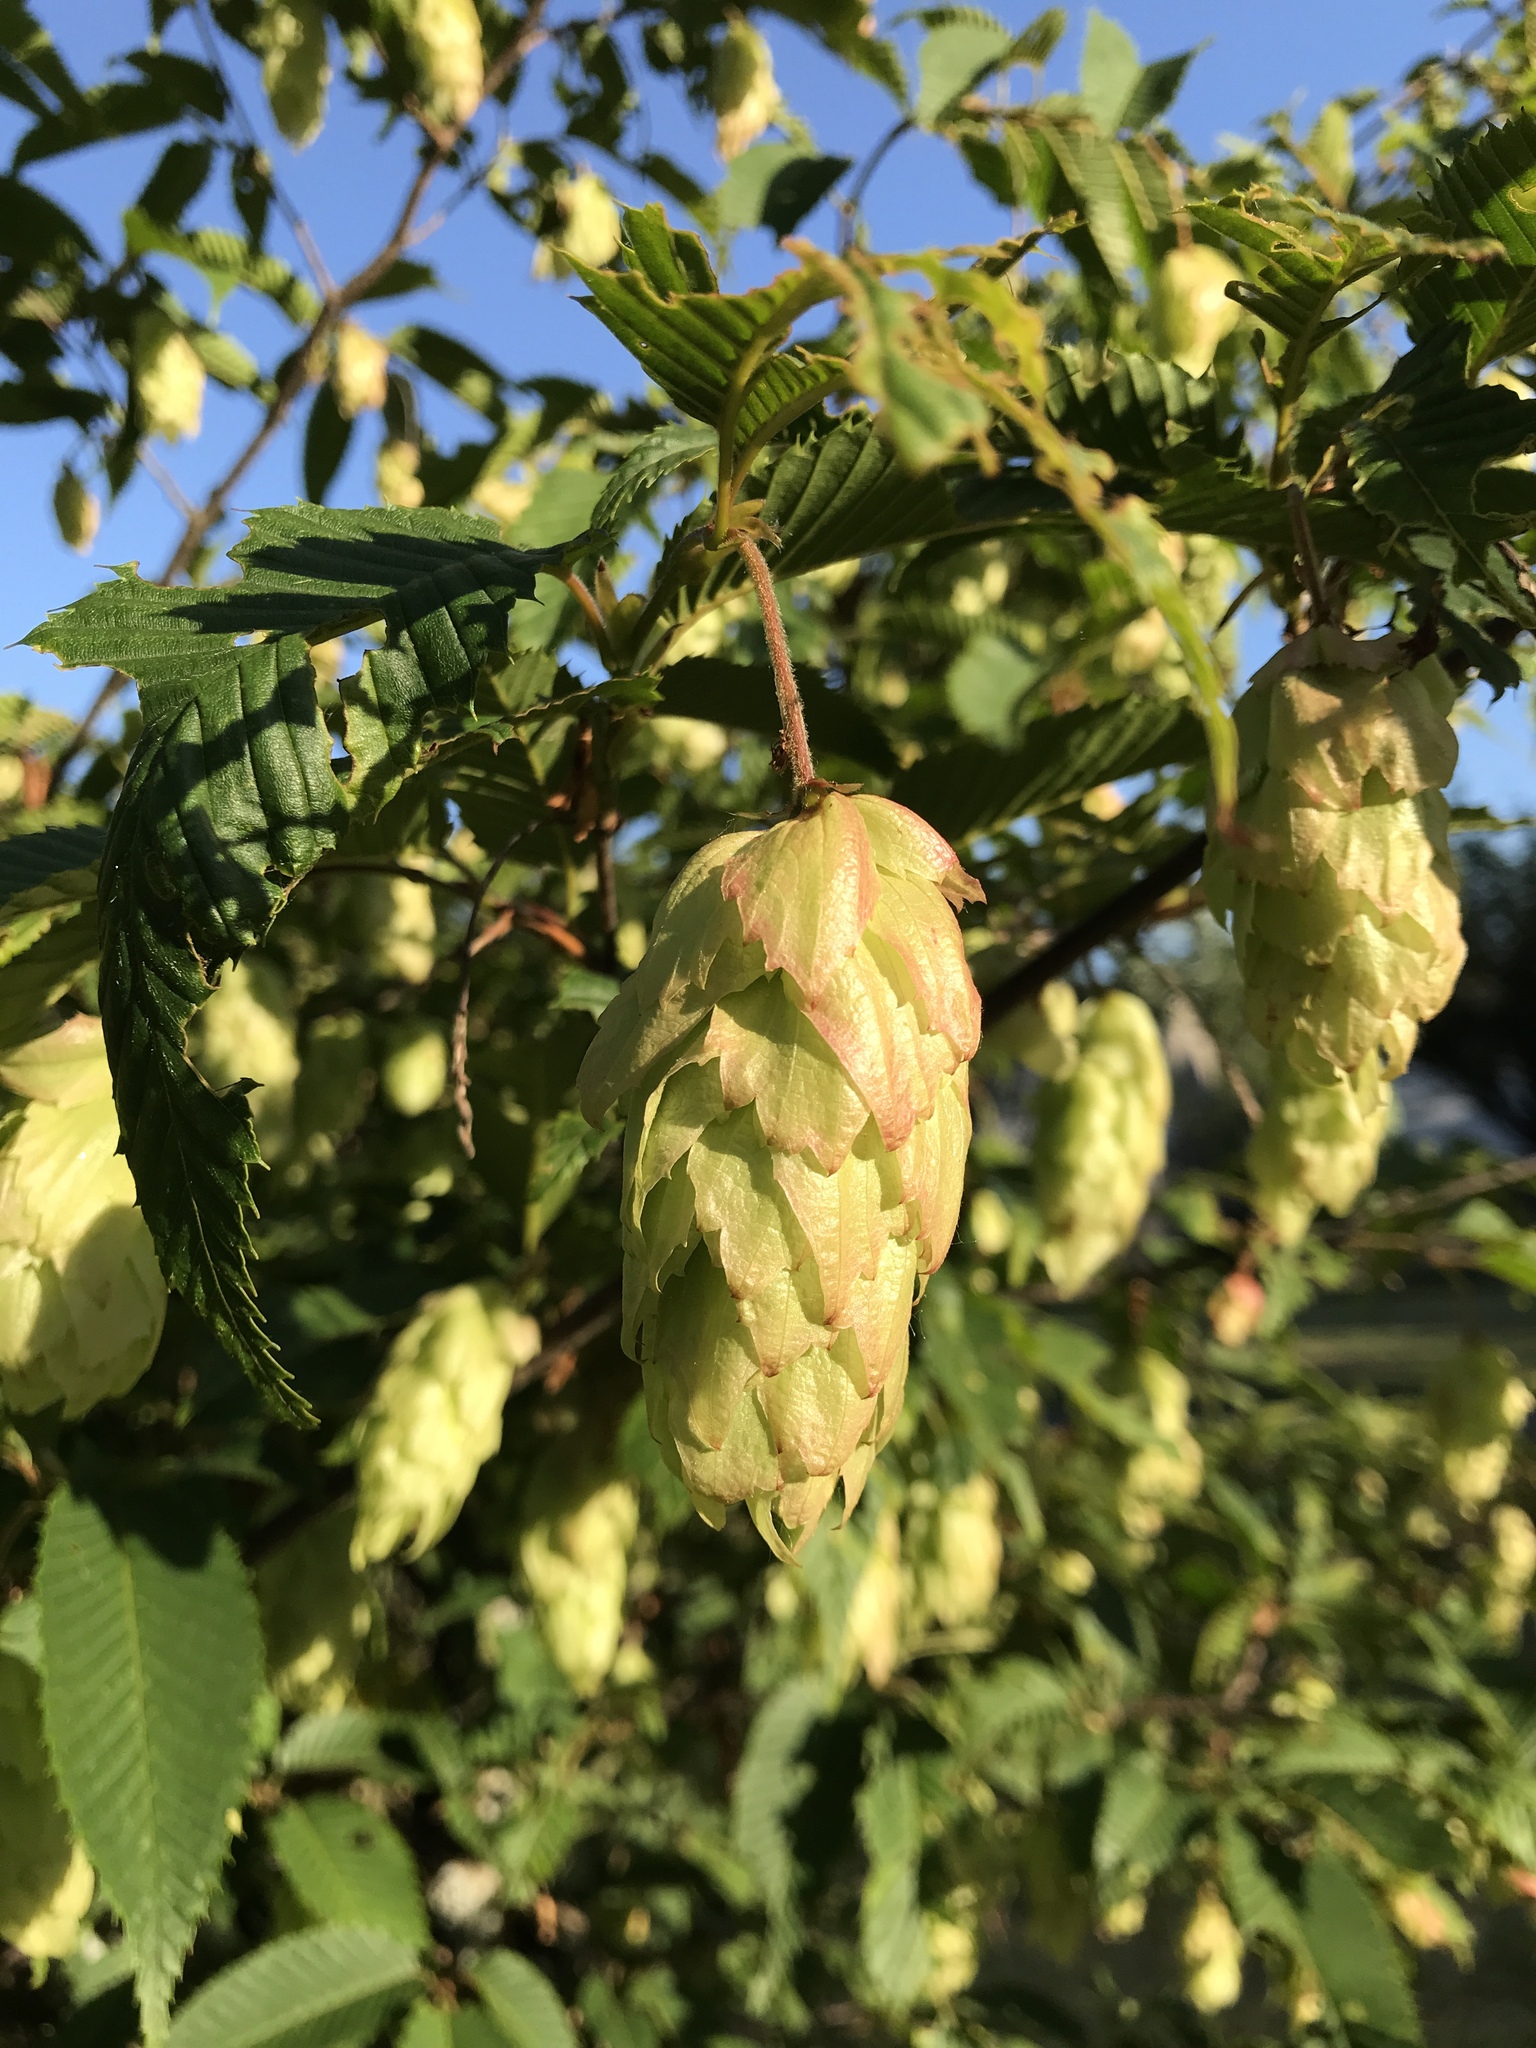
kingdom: Plantae
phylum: Tracheophyta
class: Magnoliopsida
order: Rosales
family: Cannabaceae
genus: Humulus
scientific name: Humulus lupulus
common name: Hop
